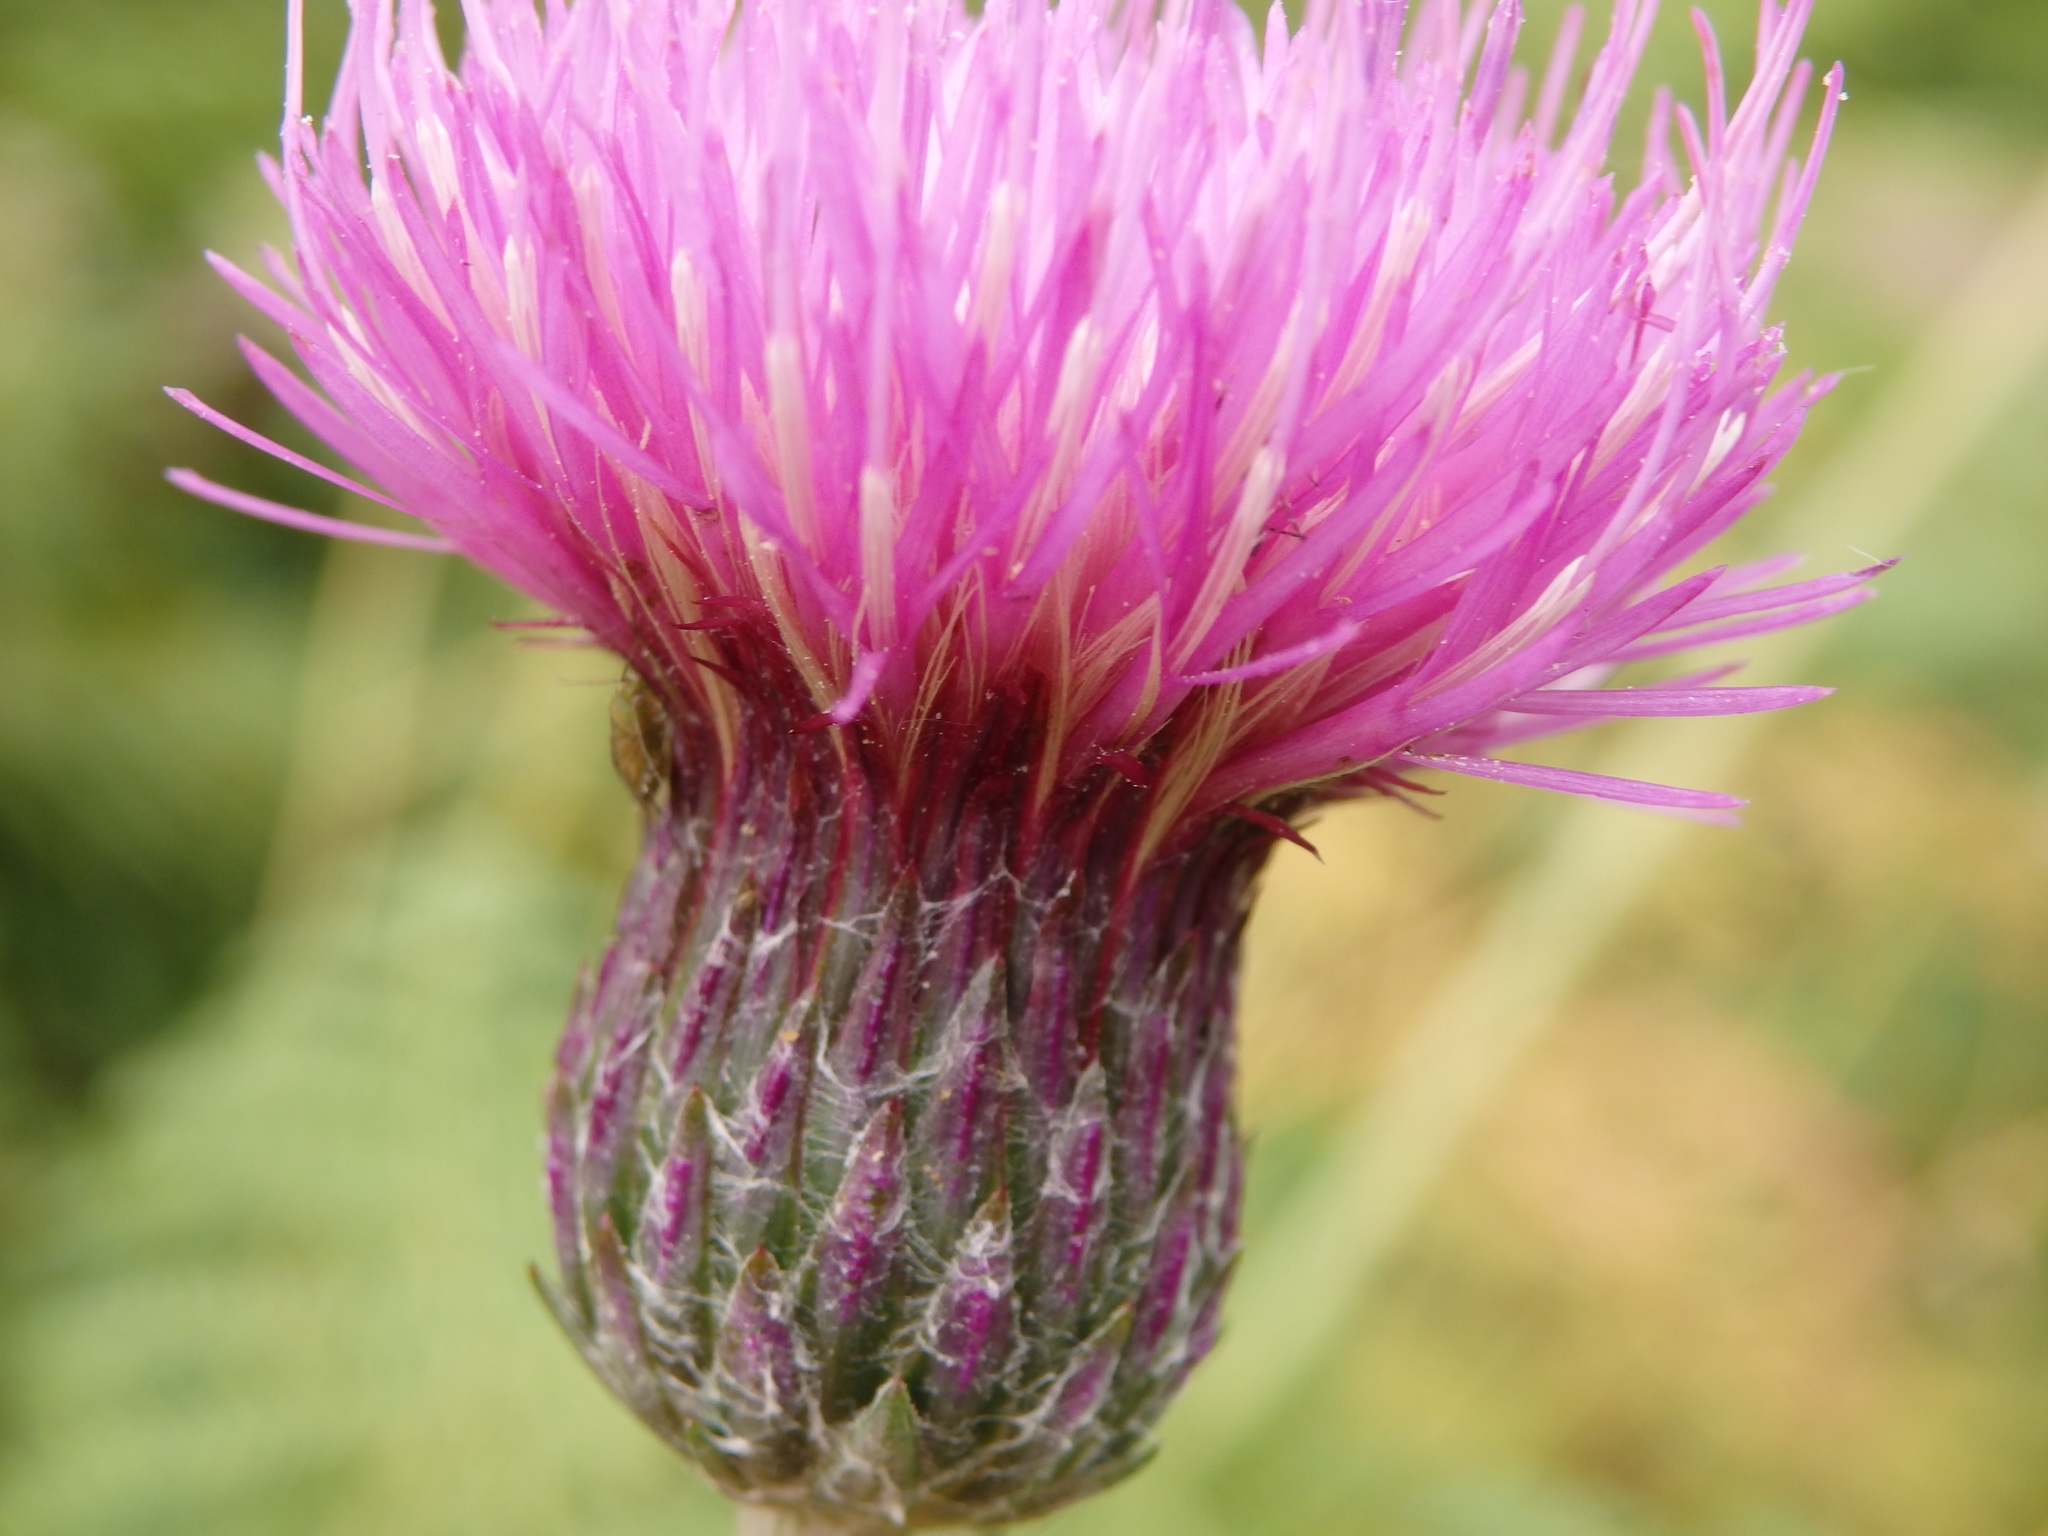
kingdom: Plantae
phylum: Tracheophyta
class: Magnoliopsida
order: Asterales
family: Asteraceae
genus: Cirsium
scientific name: Cirsium filipendulum
